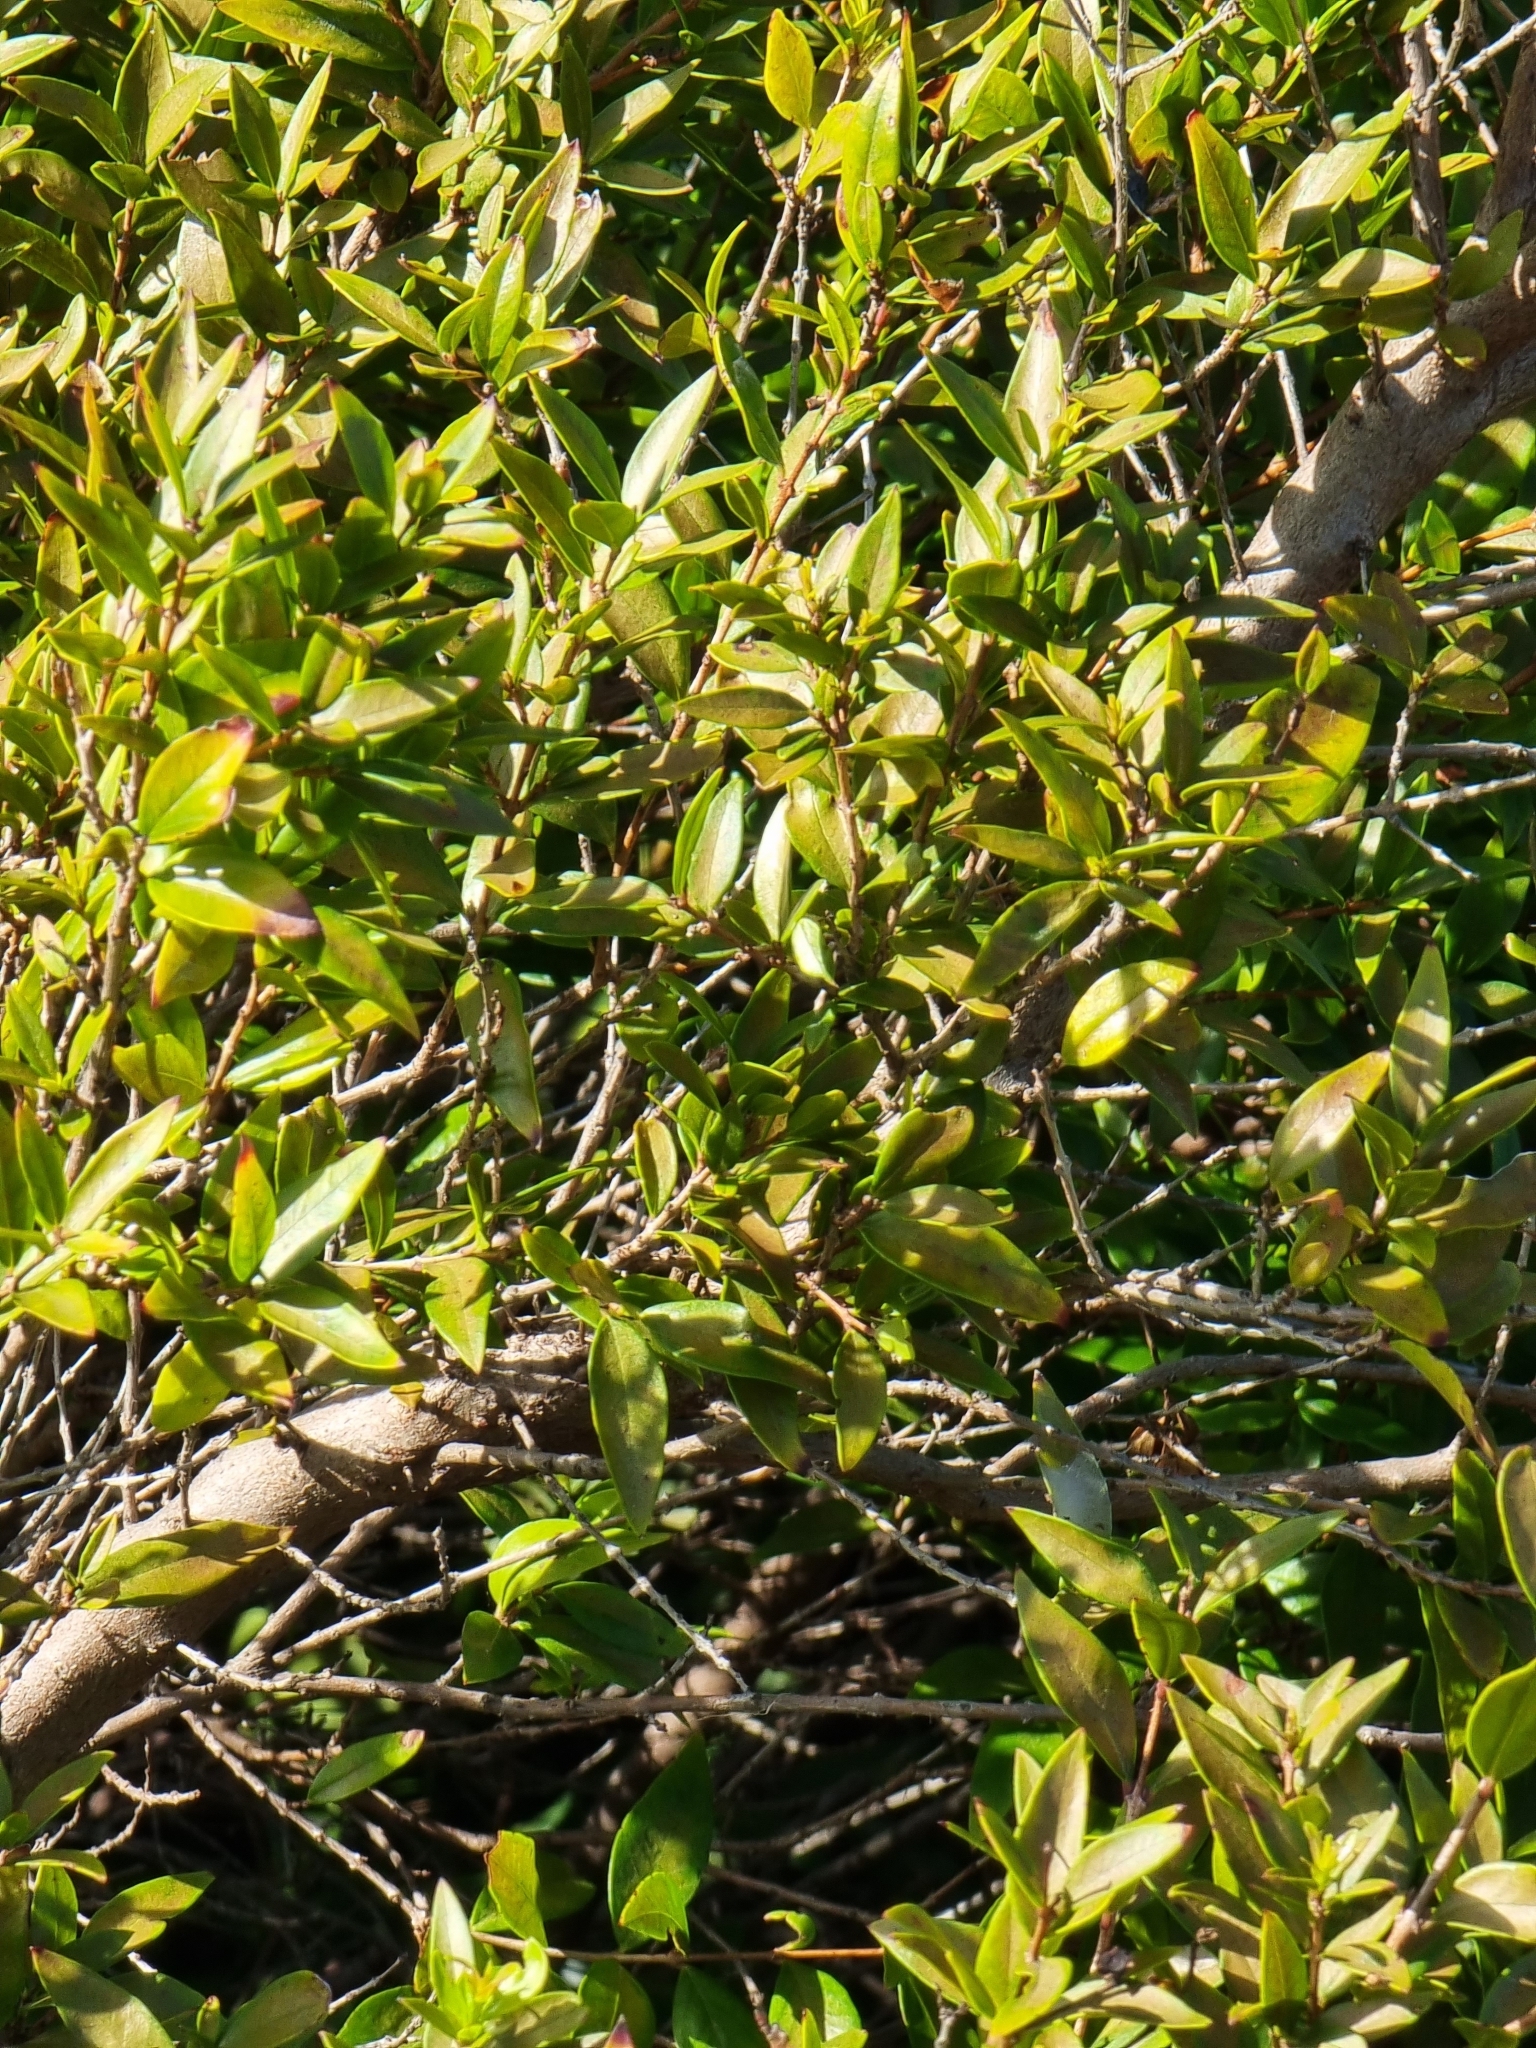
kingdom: Plantae
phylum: Tracheophyta
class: Magnoliopsida
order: Myrtales
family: Myrtaceae
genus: Myrtus
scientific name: Myrtus communis
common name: Myrtle
